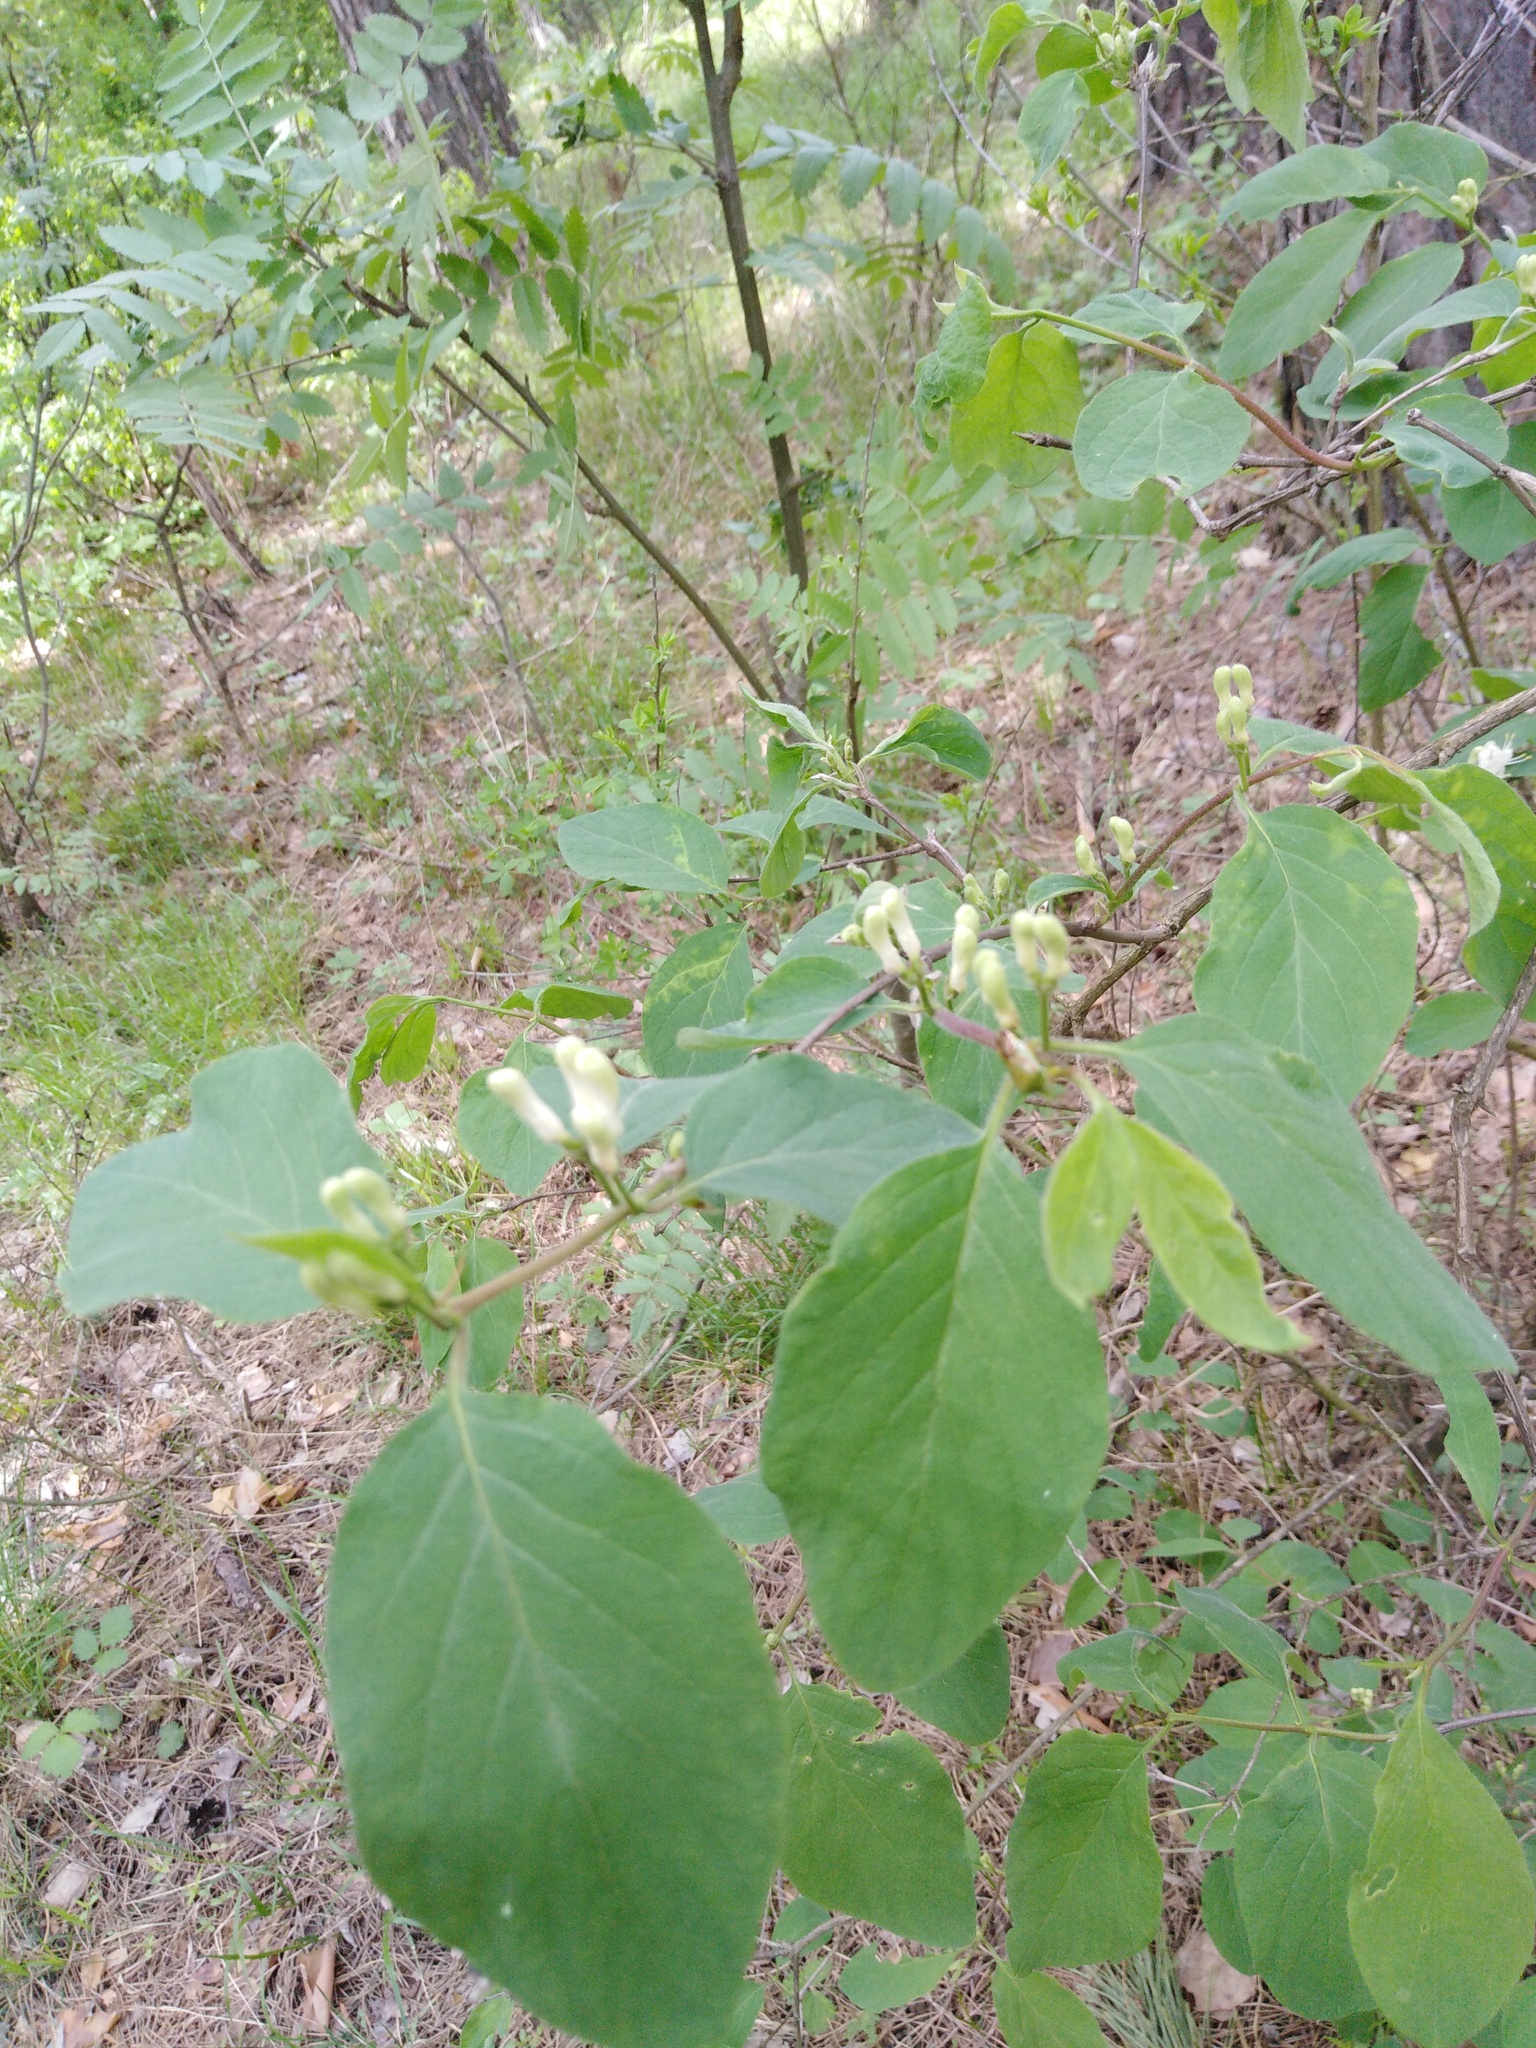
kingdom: Plantae
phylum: Tracheophyta
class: Magnoliopsida
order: Dipsacales
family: Caprifoliaceae
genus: Lonicera
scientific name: Lonicera xylosteum
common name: Fly honeysuckle
